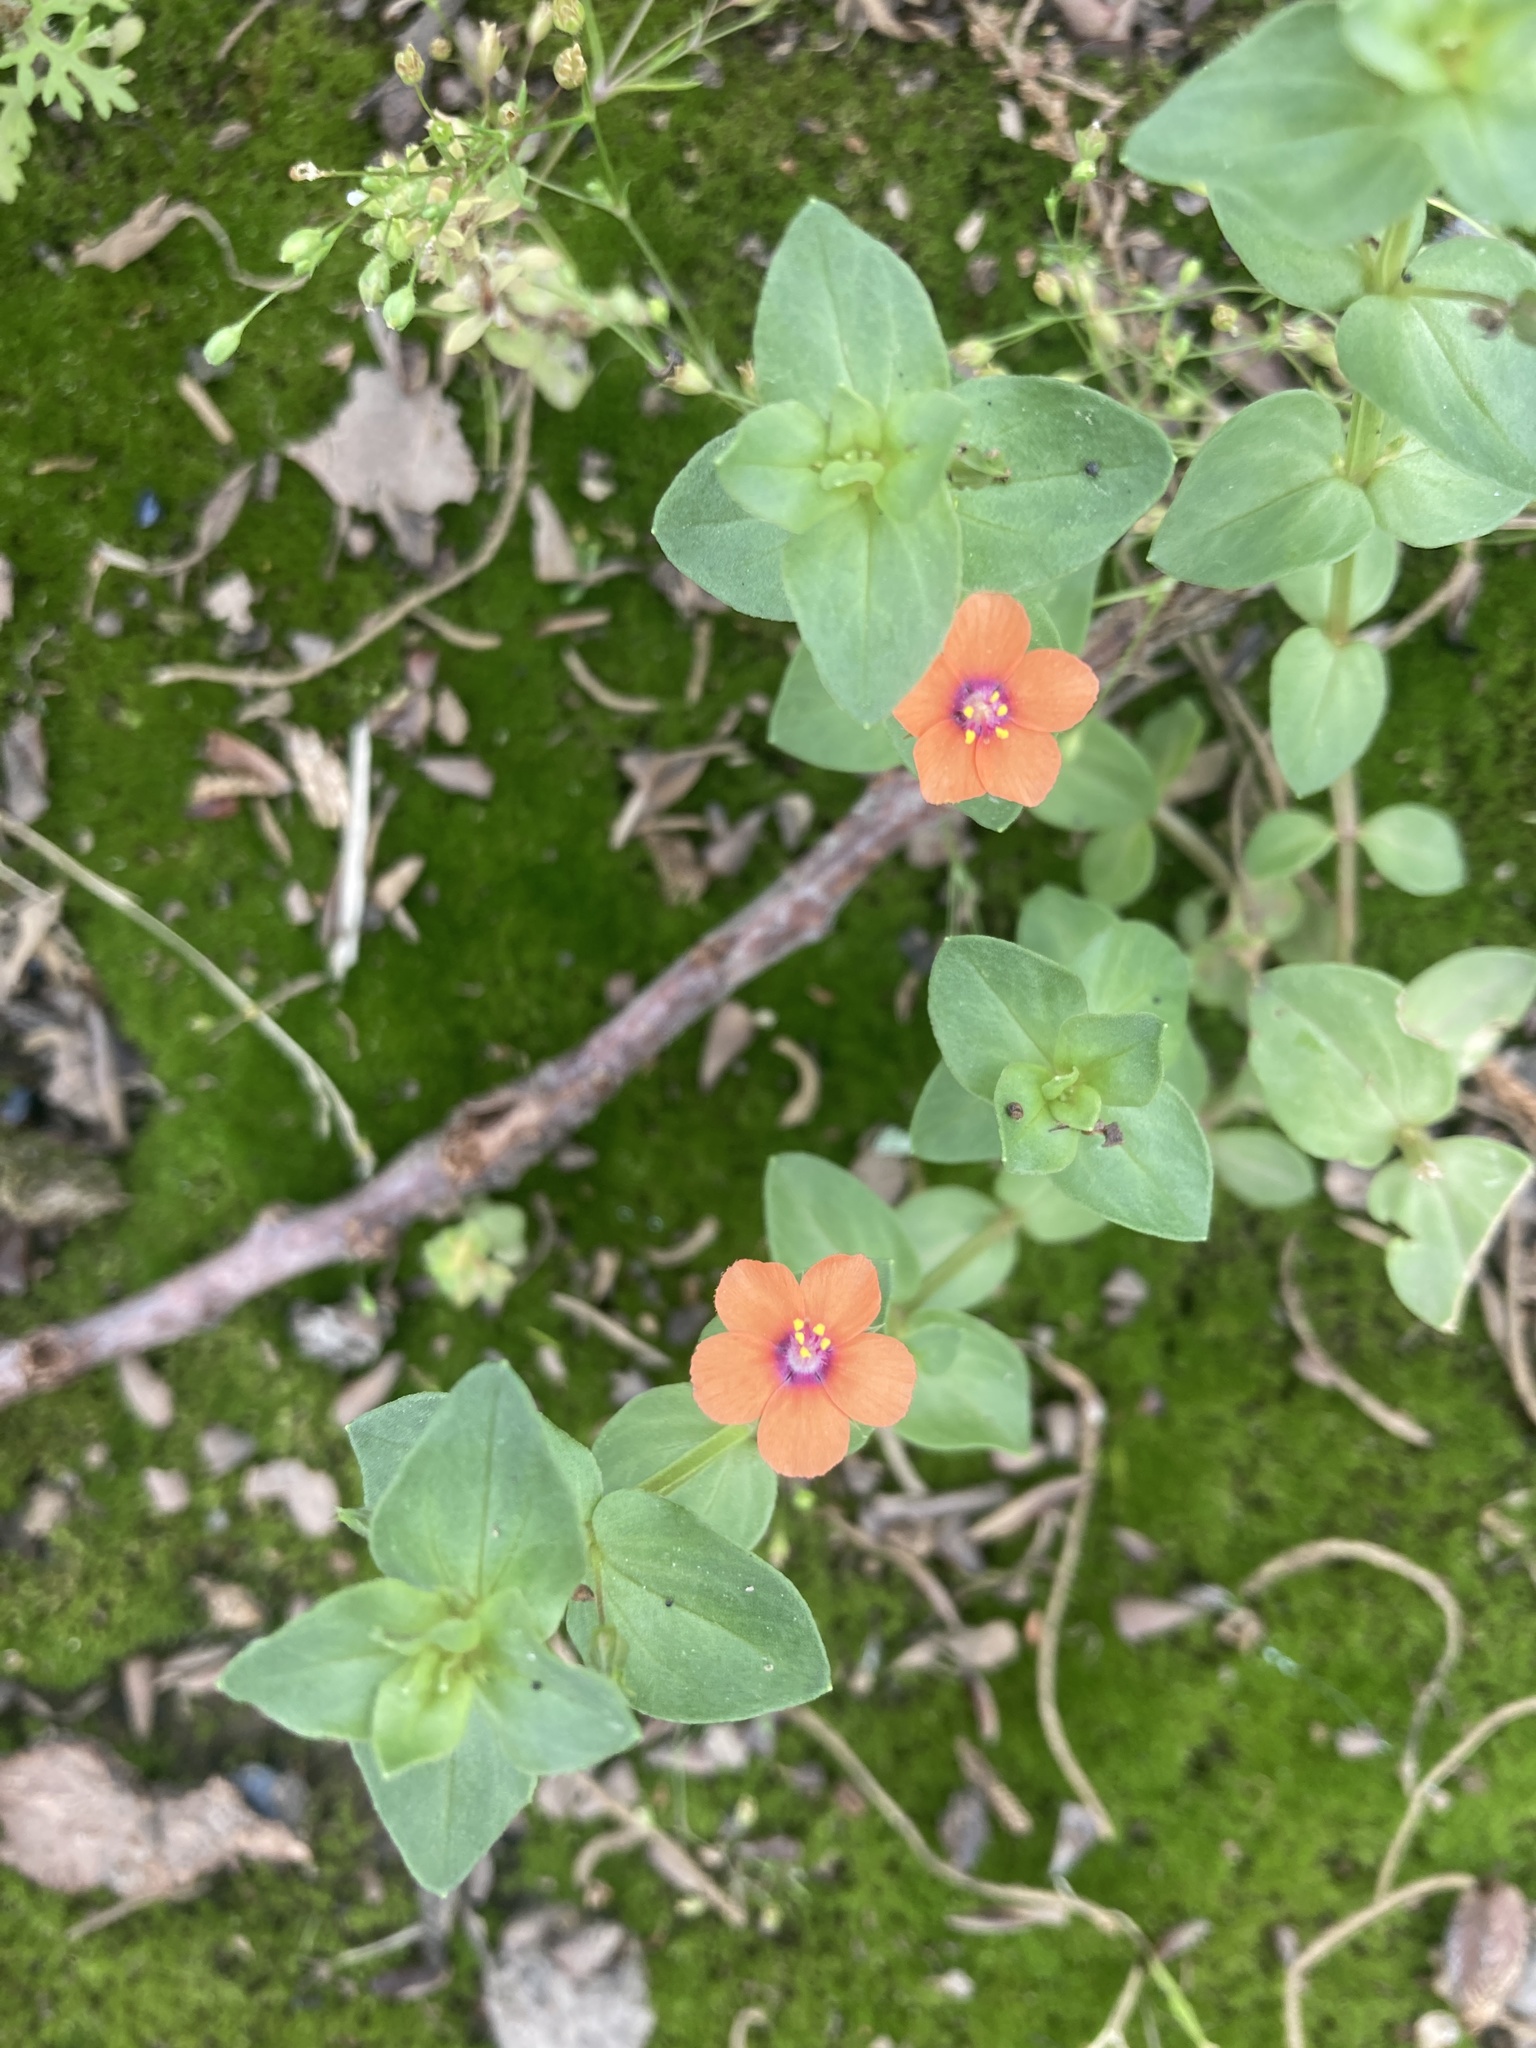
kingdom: Plantae
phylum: Tracheophyta
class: Magnoliopsida
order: Ericales
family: Primulaceae
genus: Lysimachia
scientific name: Lysimachia arvensis
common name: Scarlet pimpernel
